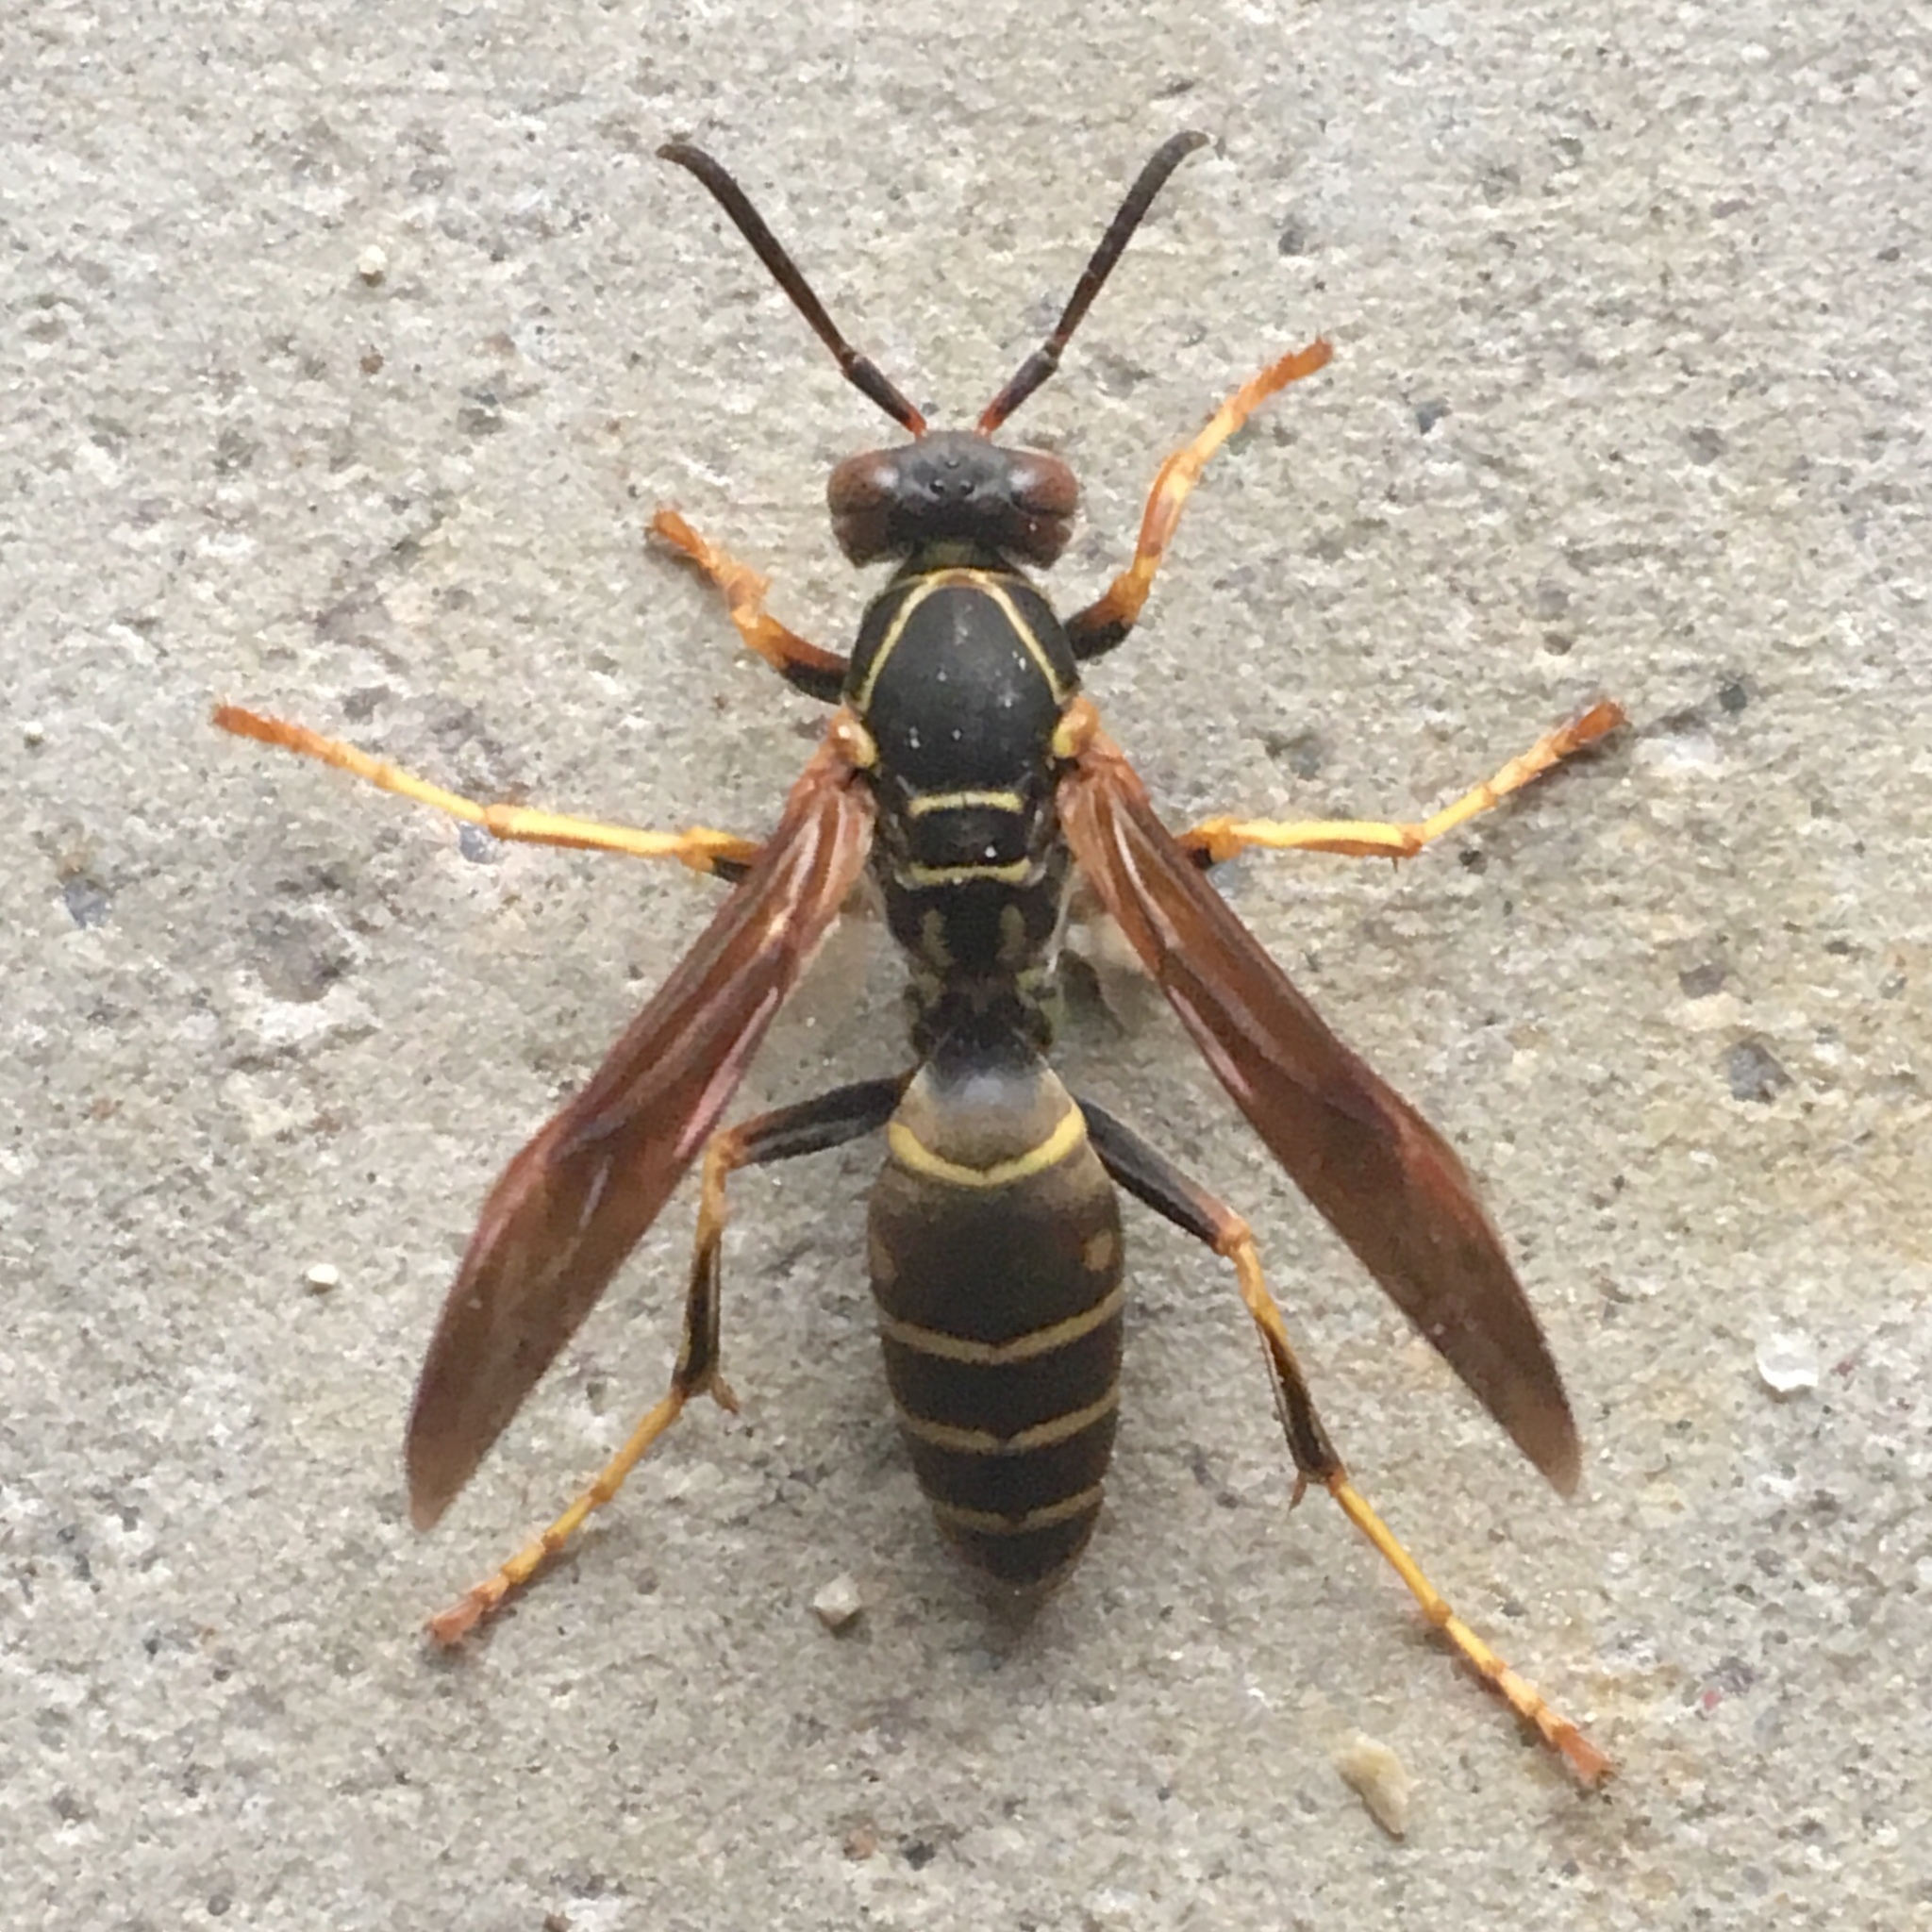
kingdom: Animalia
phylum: Arthropoda
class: Insecta
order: Hymenoptera
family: Eumenidae
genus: Polistes
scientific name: Polistes fuscatus
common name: Dark paper wasp
